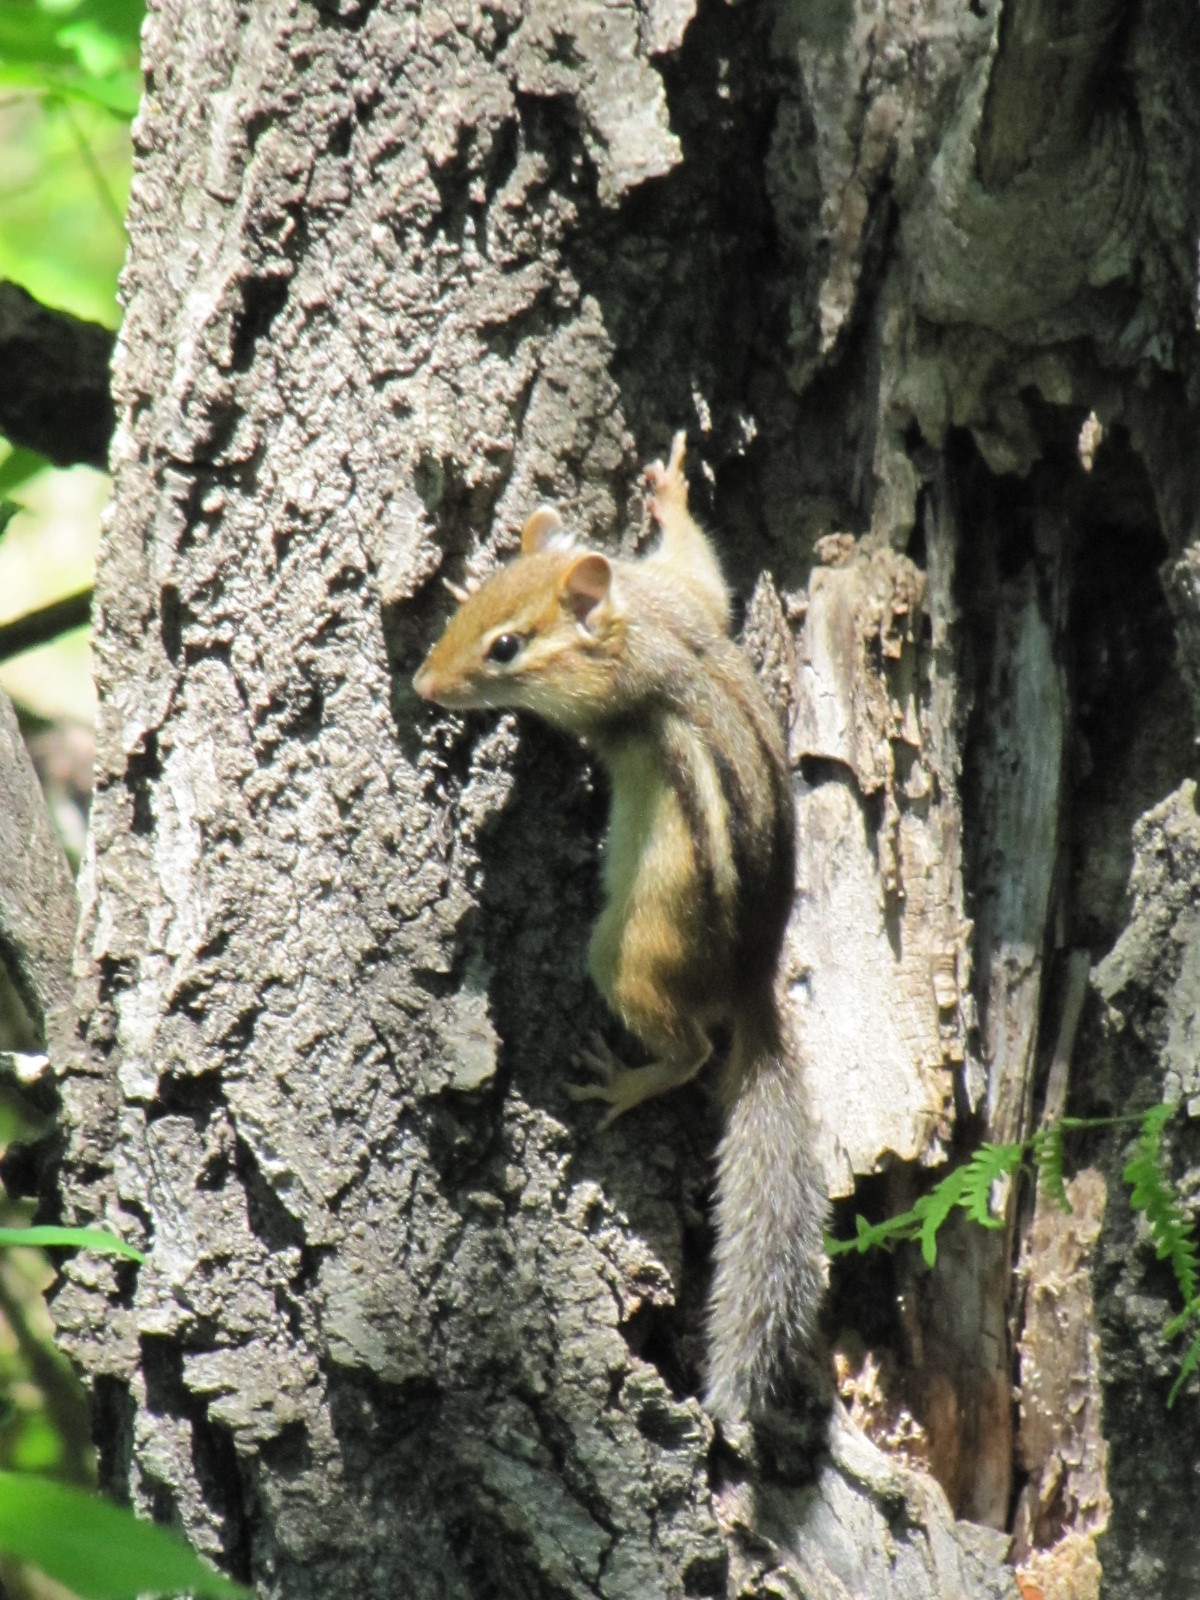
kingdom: Animalia
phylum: Chordata
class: Mammalia
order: Rodentia
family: Sciuridae
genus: Tamias
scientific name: Tamias striatus
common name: Eastern chipmunk
